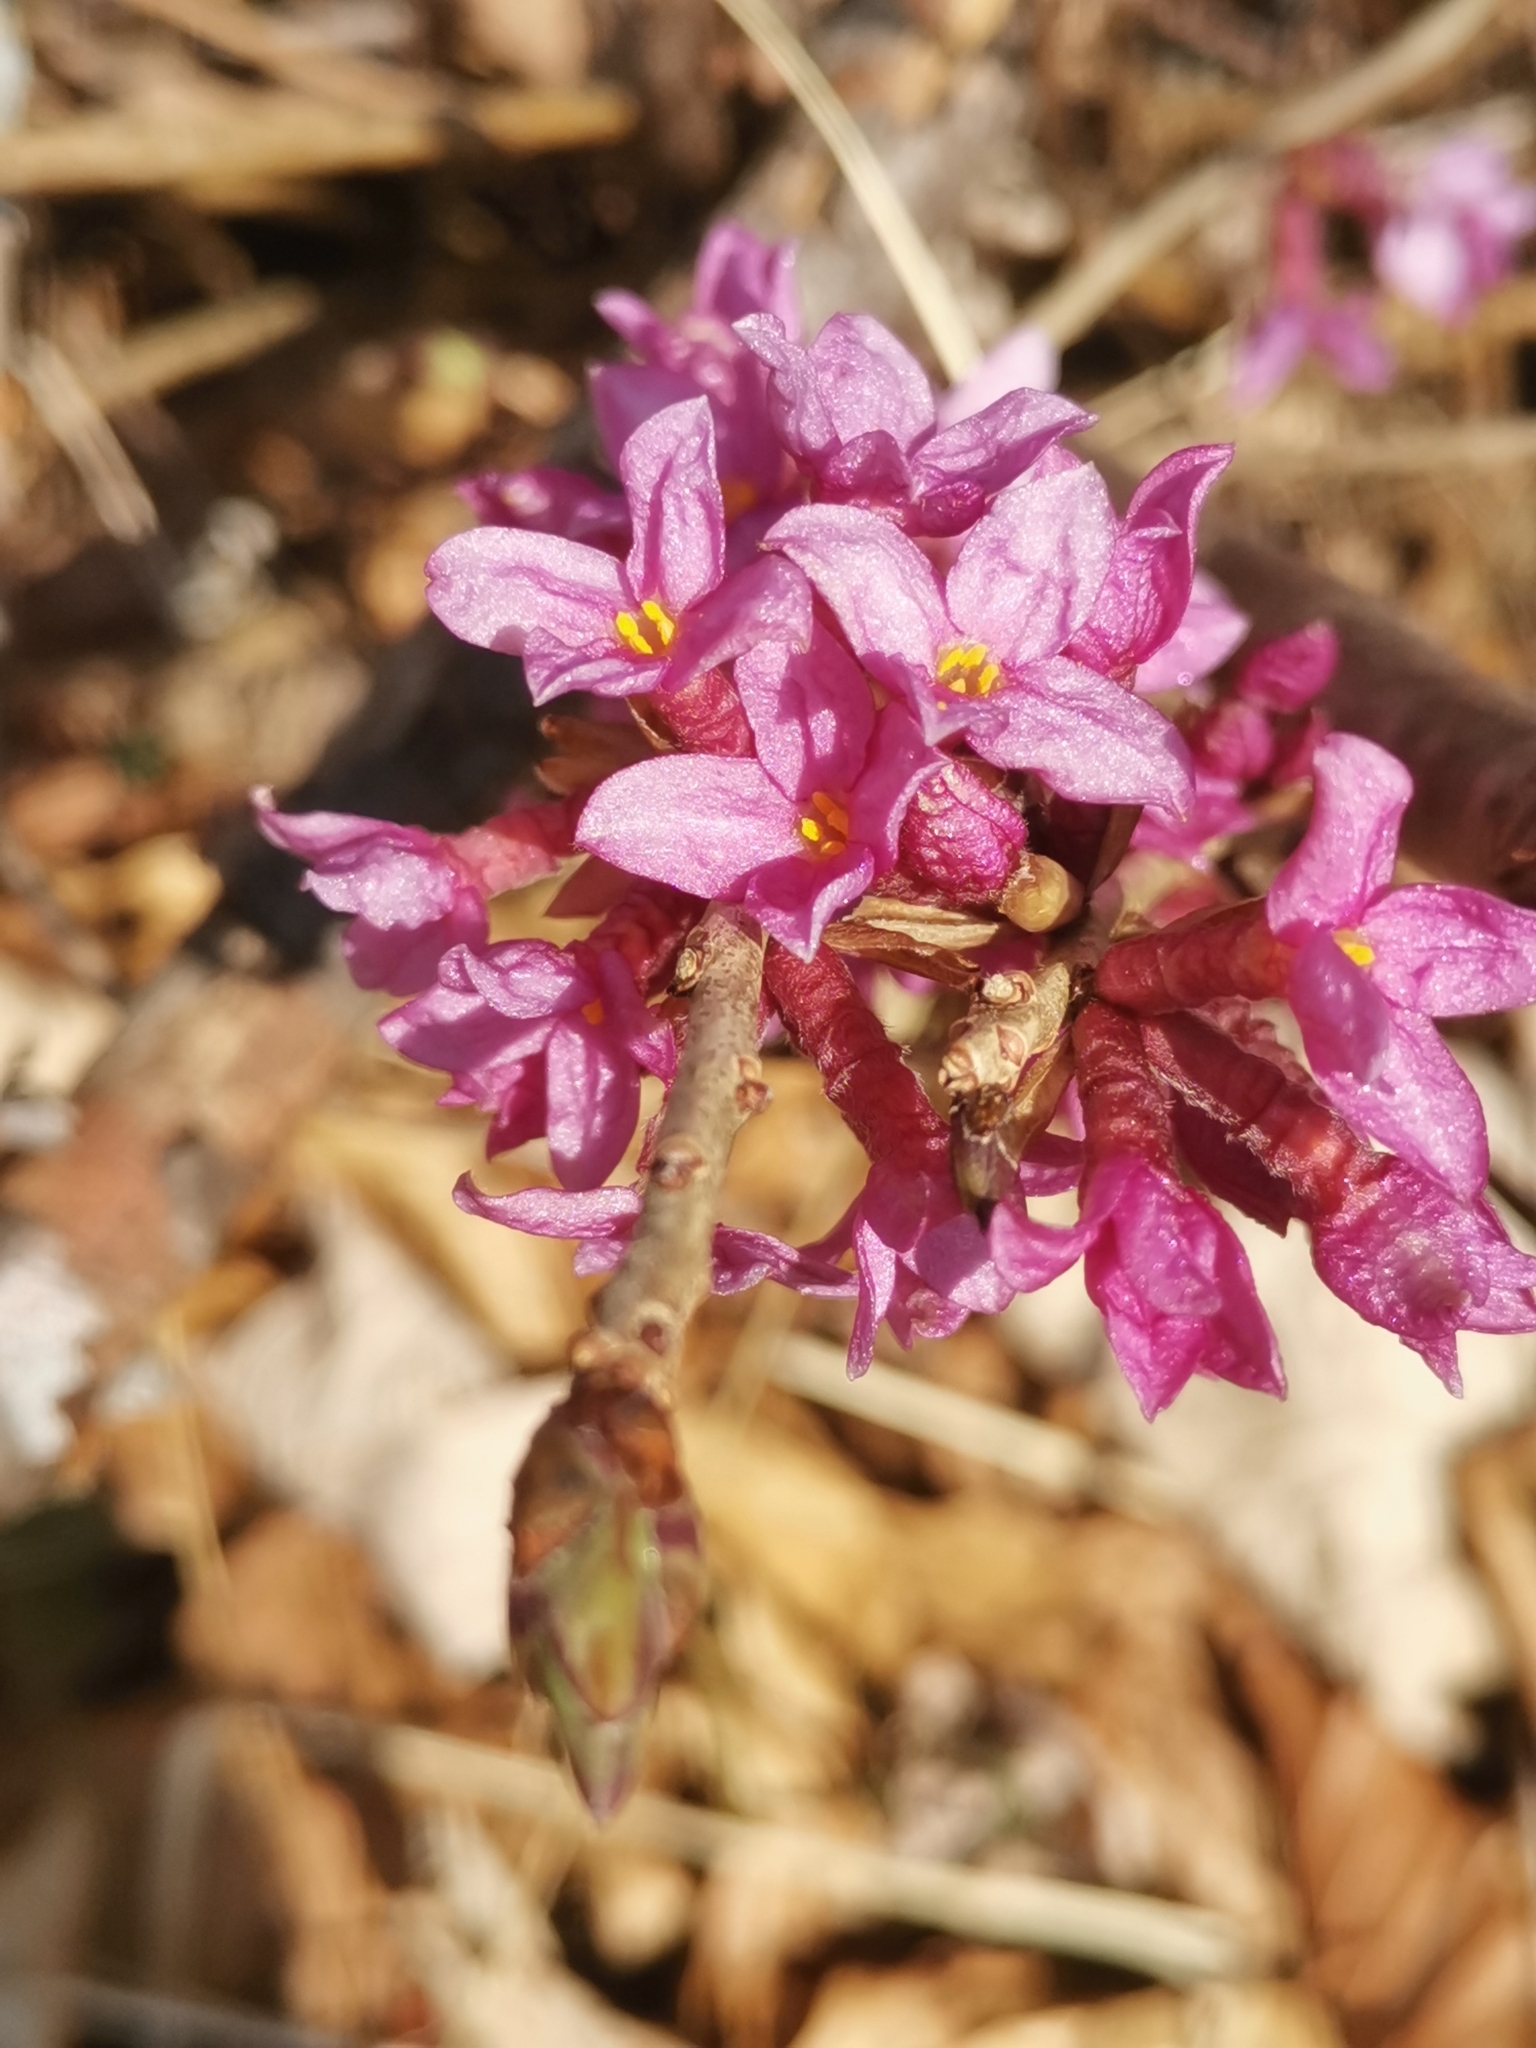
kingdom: Plantae
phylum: Tracheophyta
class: Magnoliopsida
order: Malvales
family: Thymelaeaceae
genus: Daphne
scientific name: Daphne mezereum
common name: Mezereon
